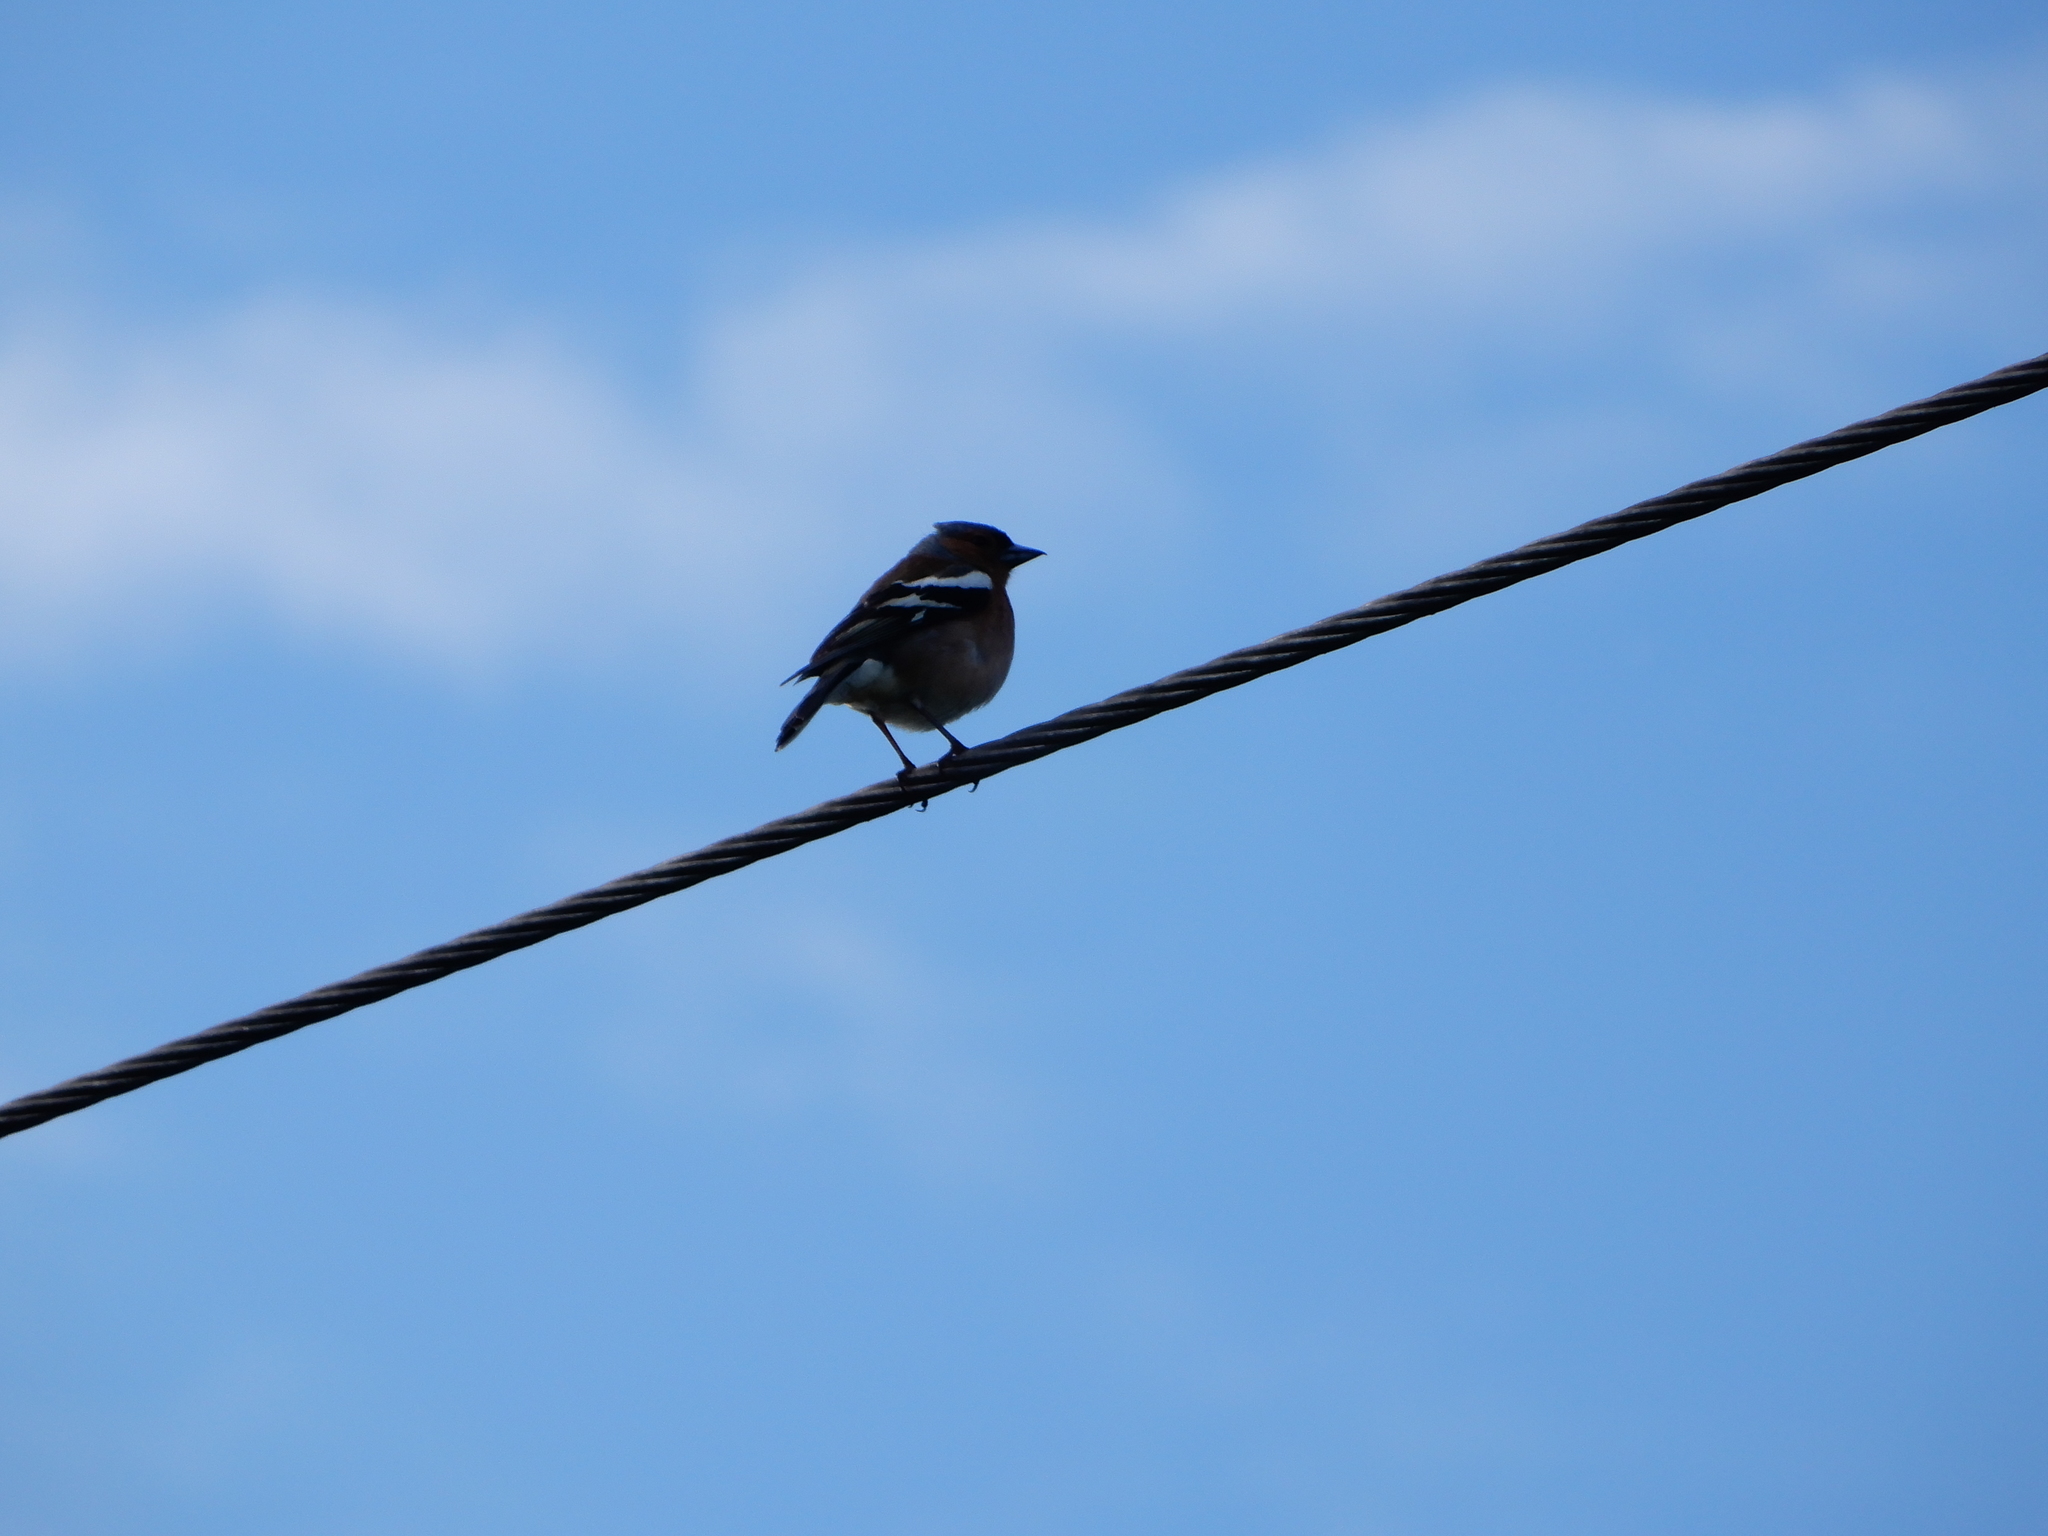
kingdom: Animalia
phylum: Chordata
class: Aves
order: Passeriformes
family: Fringillidae
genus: Fringilla
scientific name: Fringilla coelebs
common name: Common chaffinch
